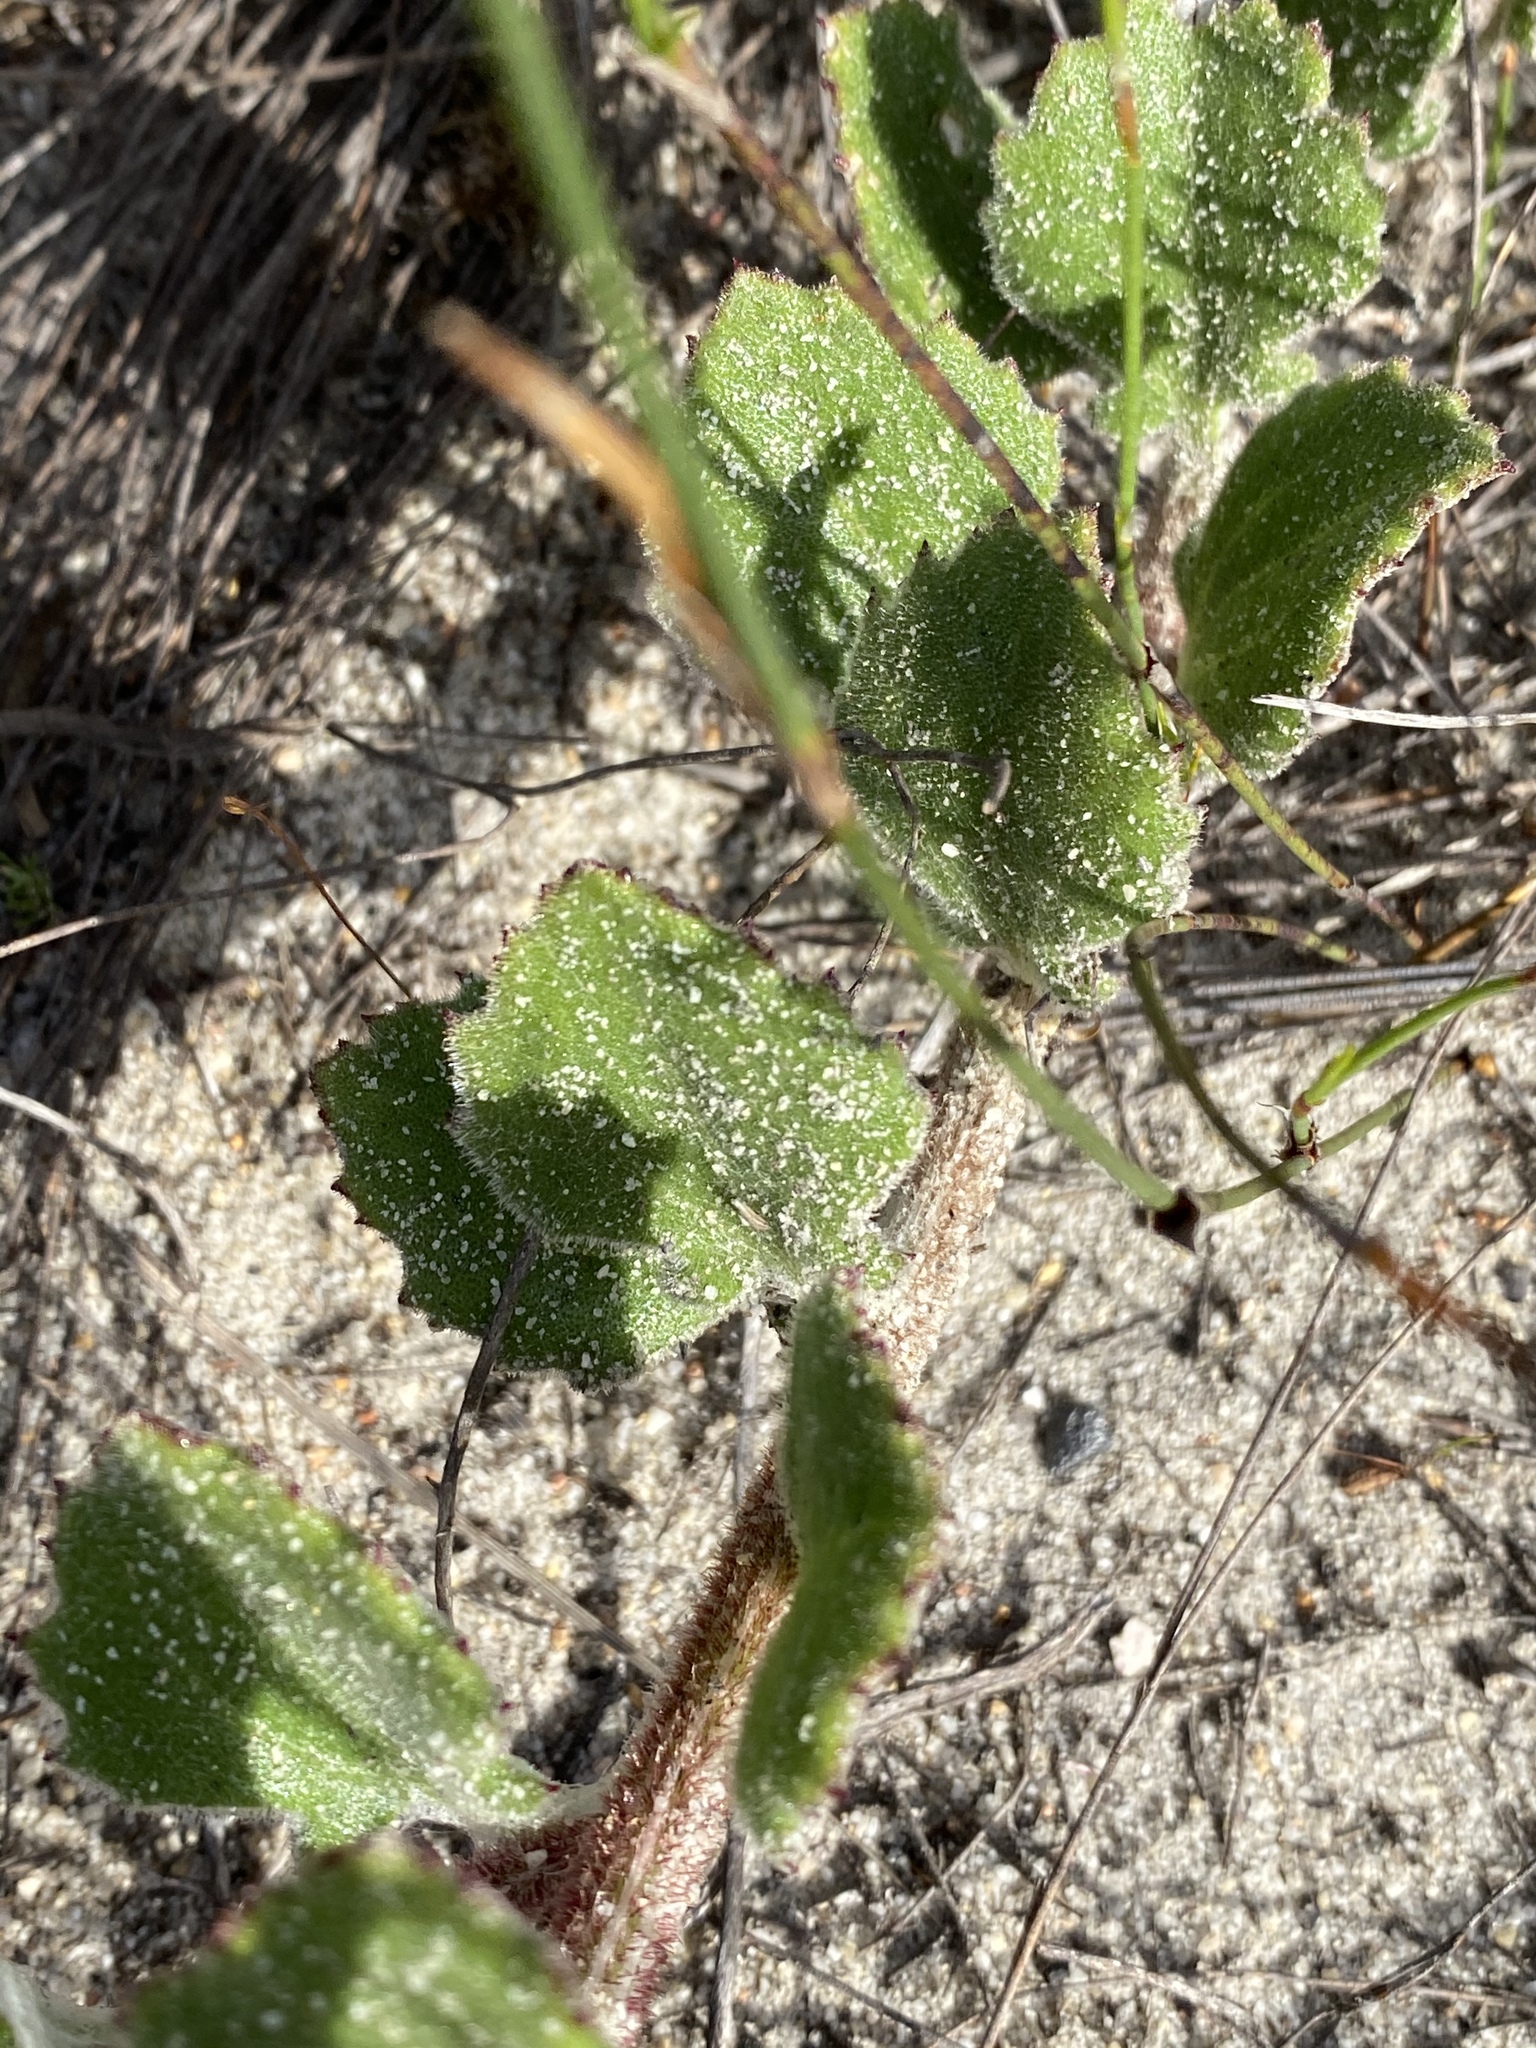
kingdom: Plantae
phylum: Tracheophyta
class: Magnoliopsida
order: Asterales
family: Asteraceae
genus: Arctotis
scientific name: Arctotis angustifolia
